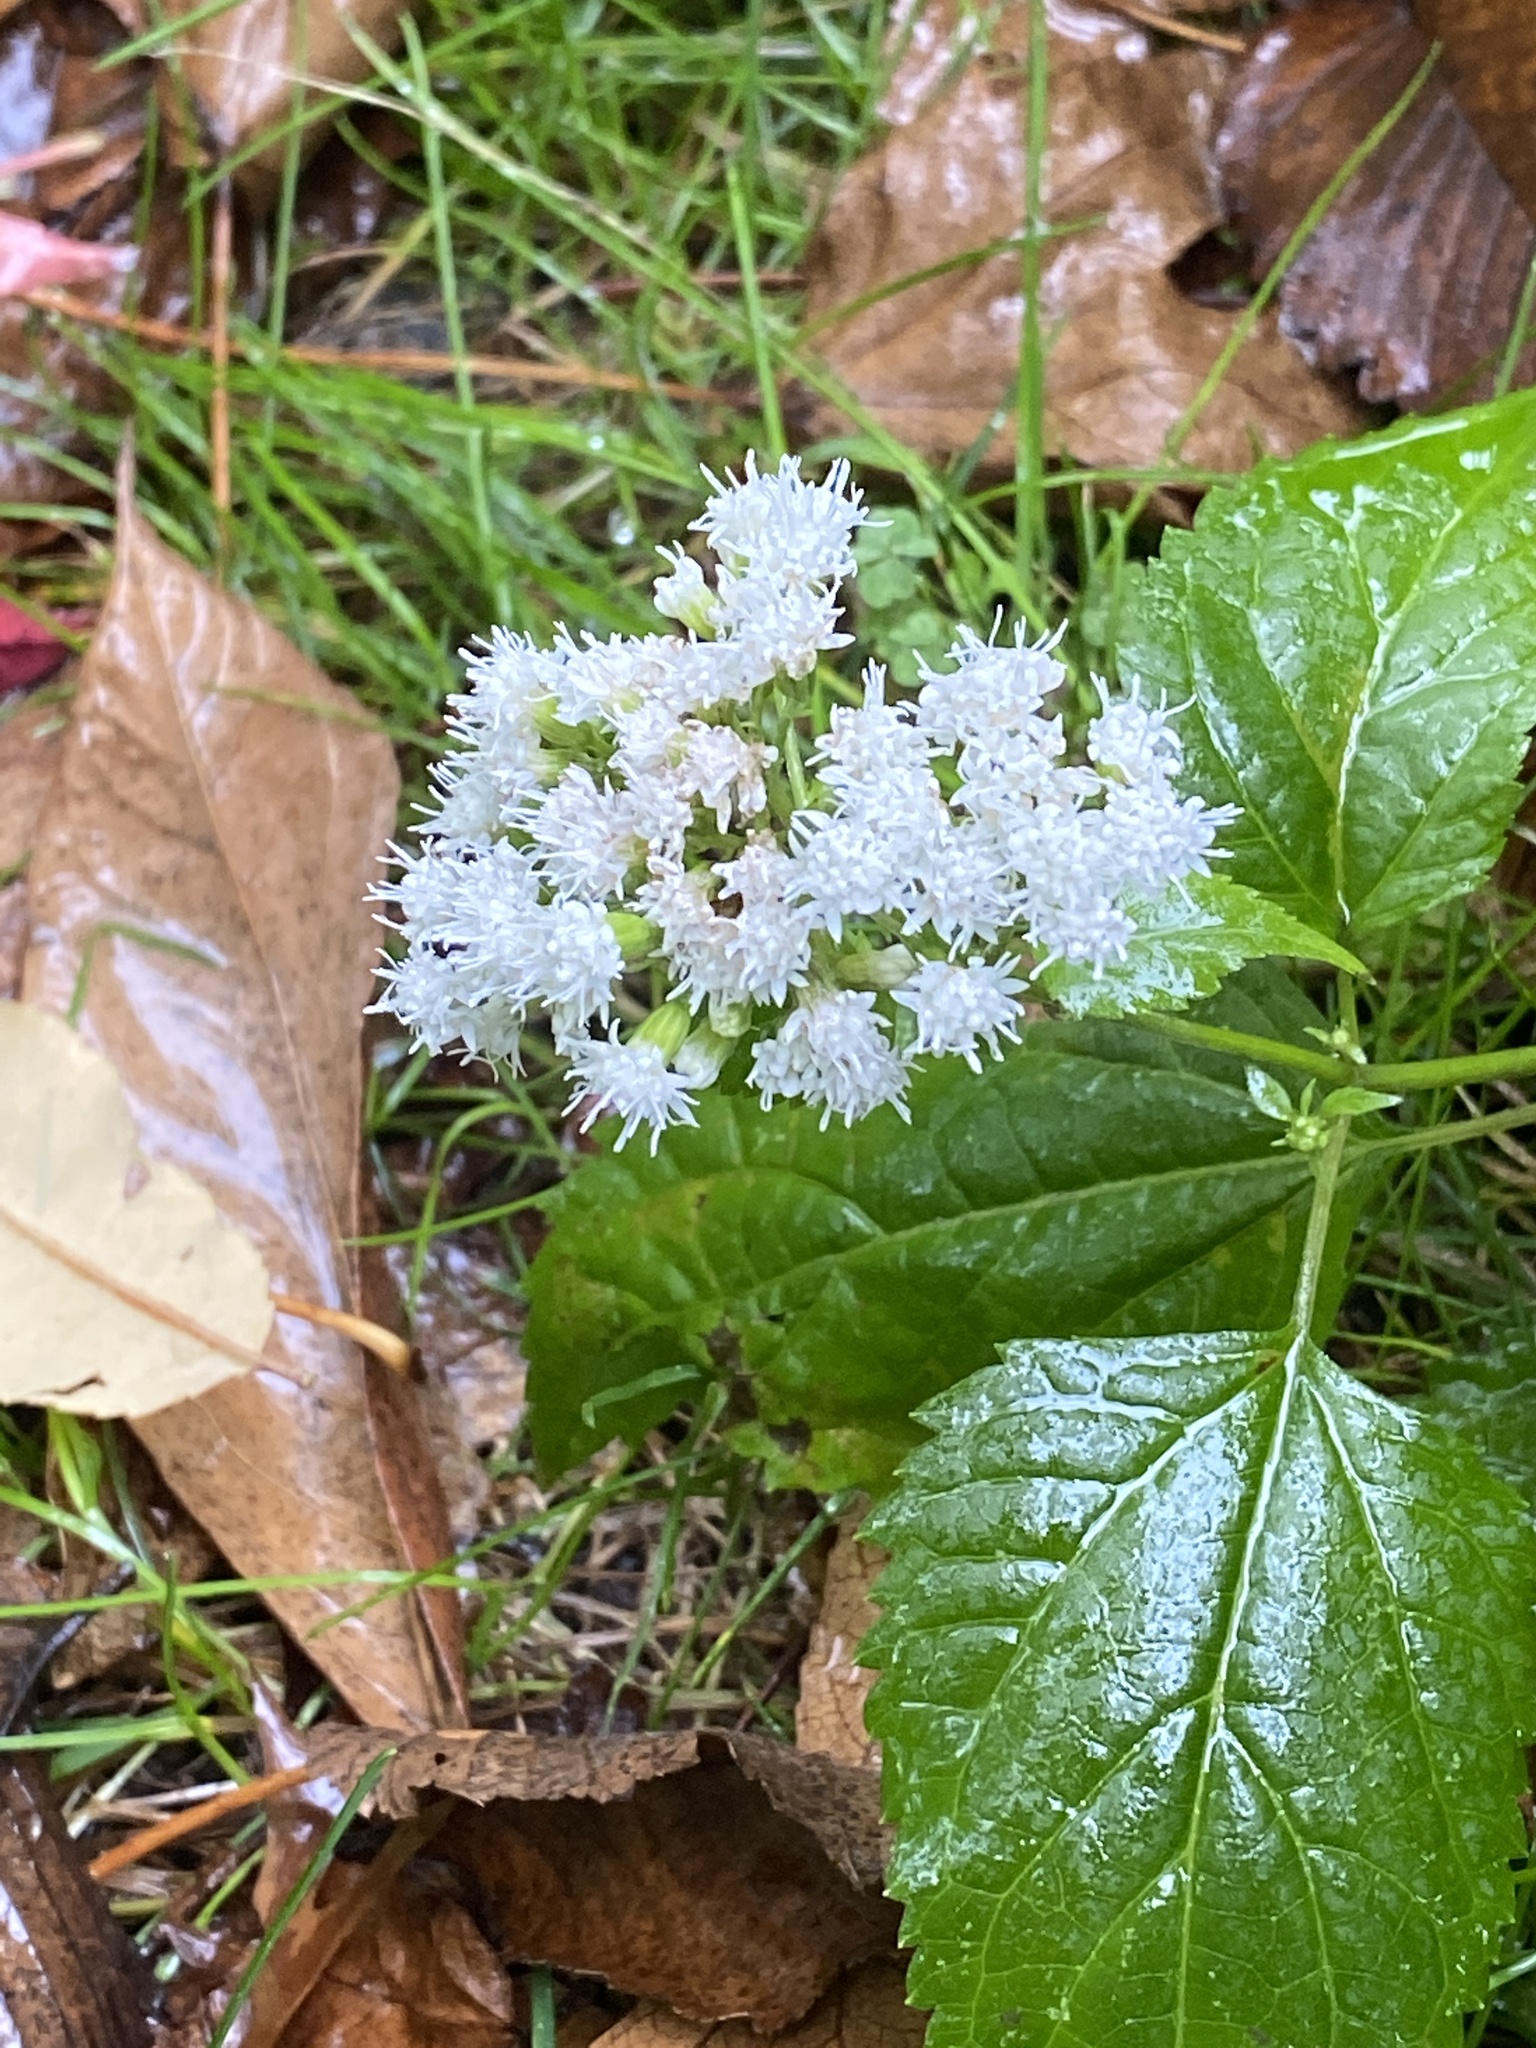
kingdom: Plantae
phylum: Tracheophyta
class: Magnoliopsida
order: Asterales
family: Asteraceae
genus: Ageratina
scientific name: Ageratina altissima
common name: White snakeroot
